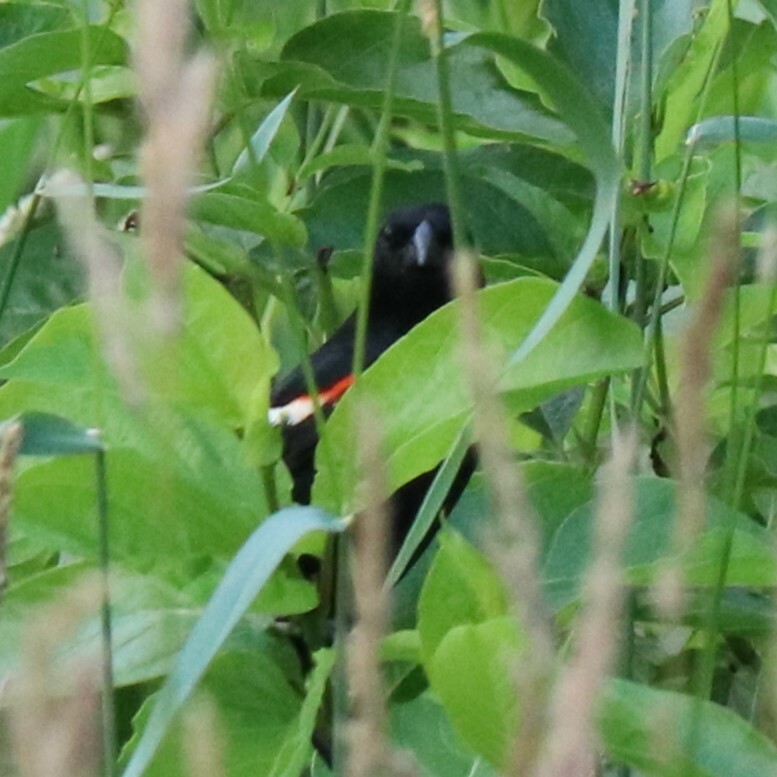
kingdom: Animalia
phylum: Chordata
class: Aves
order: Passeriformes
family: Icteridae
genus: Agelaius
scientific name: Agelaius phoeniceus
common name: Red-winged blackbird
